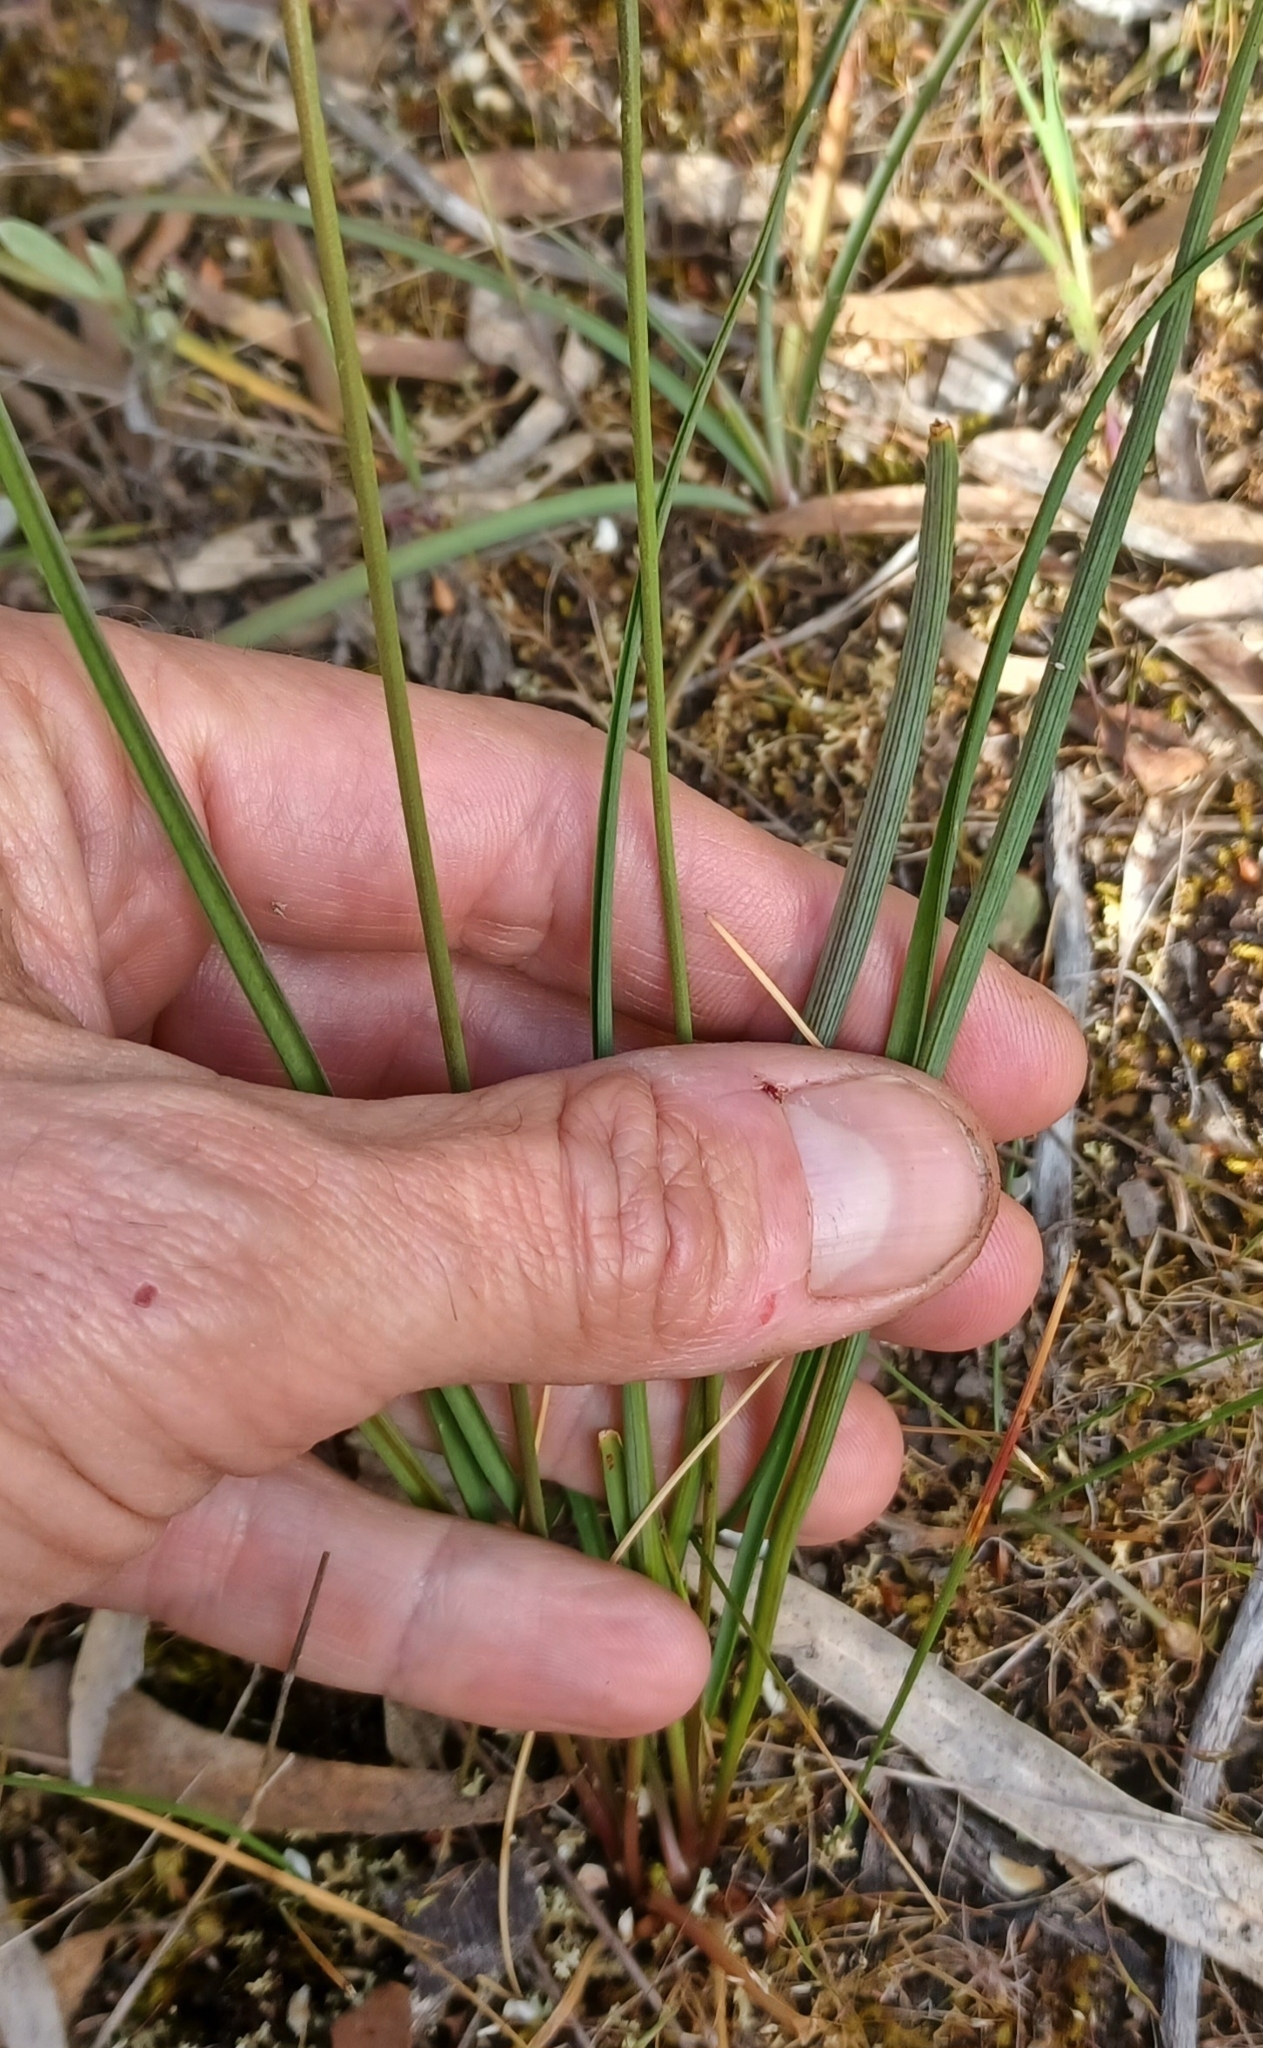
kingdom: Plantae
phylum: Tracheophyta
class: Liliopsida
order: Asparagales
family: Asparagaceae
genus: Arthropodium
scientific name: Arthropodium strictum
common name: Chocolate-lily
